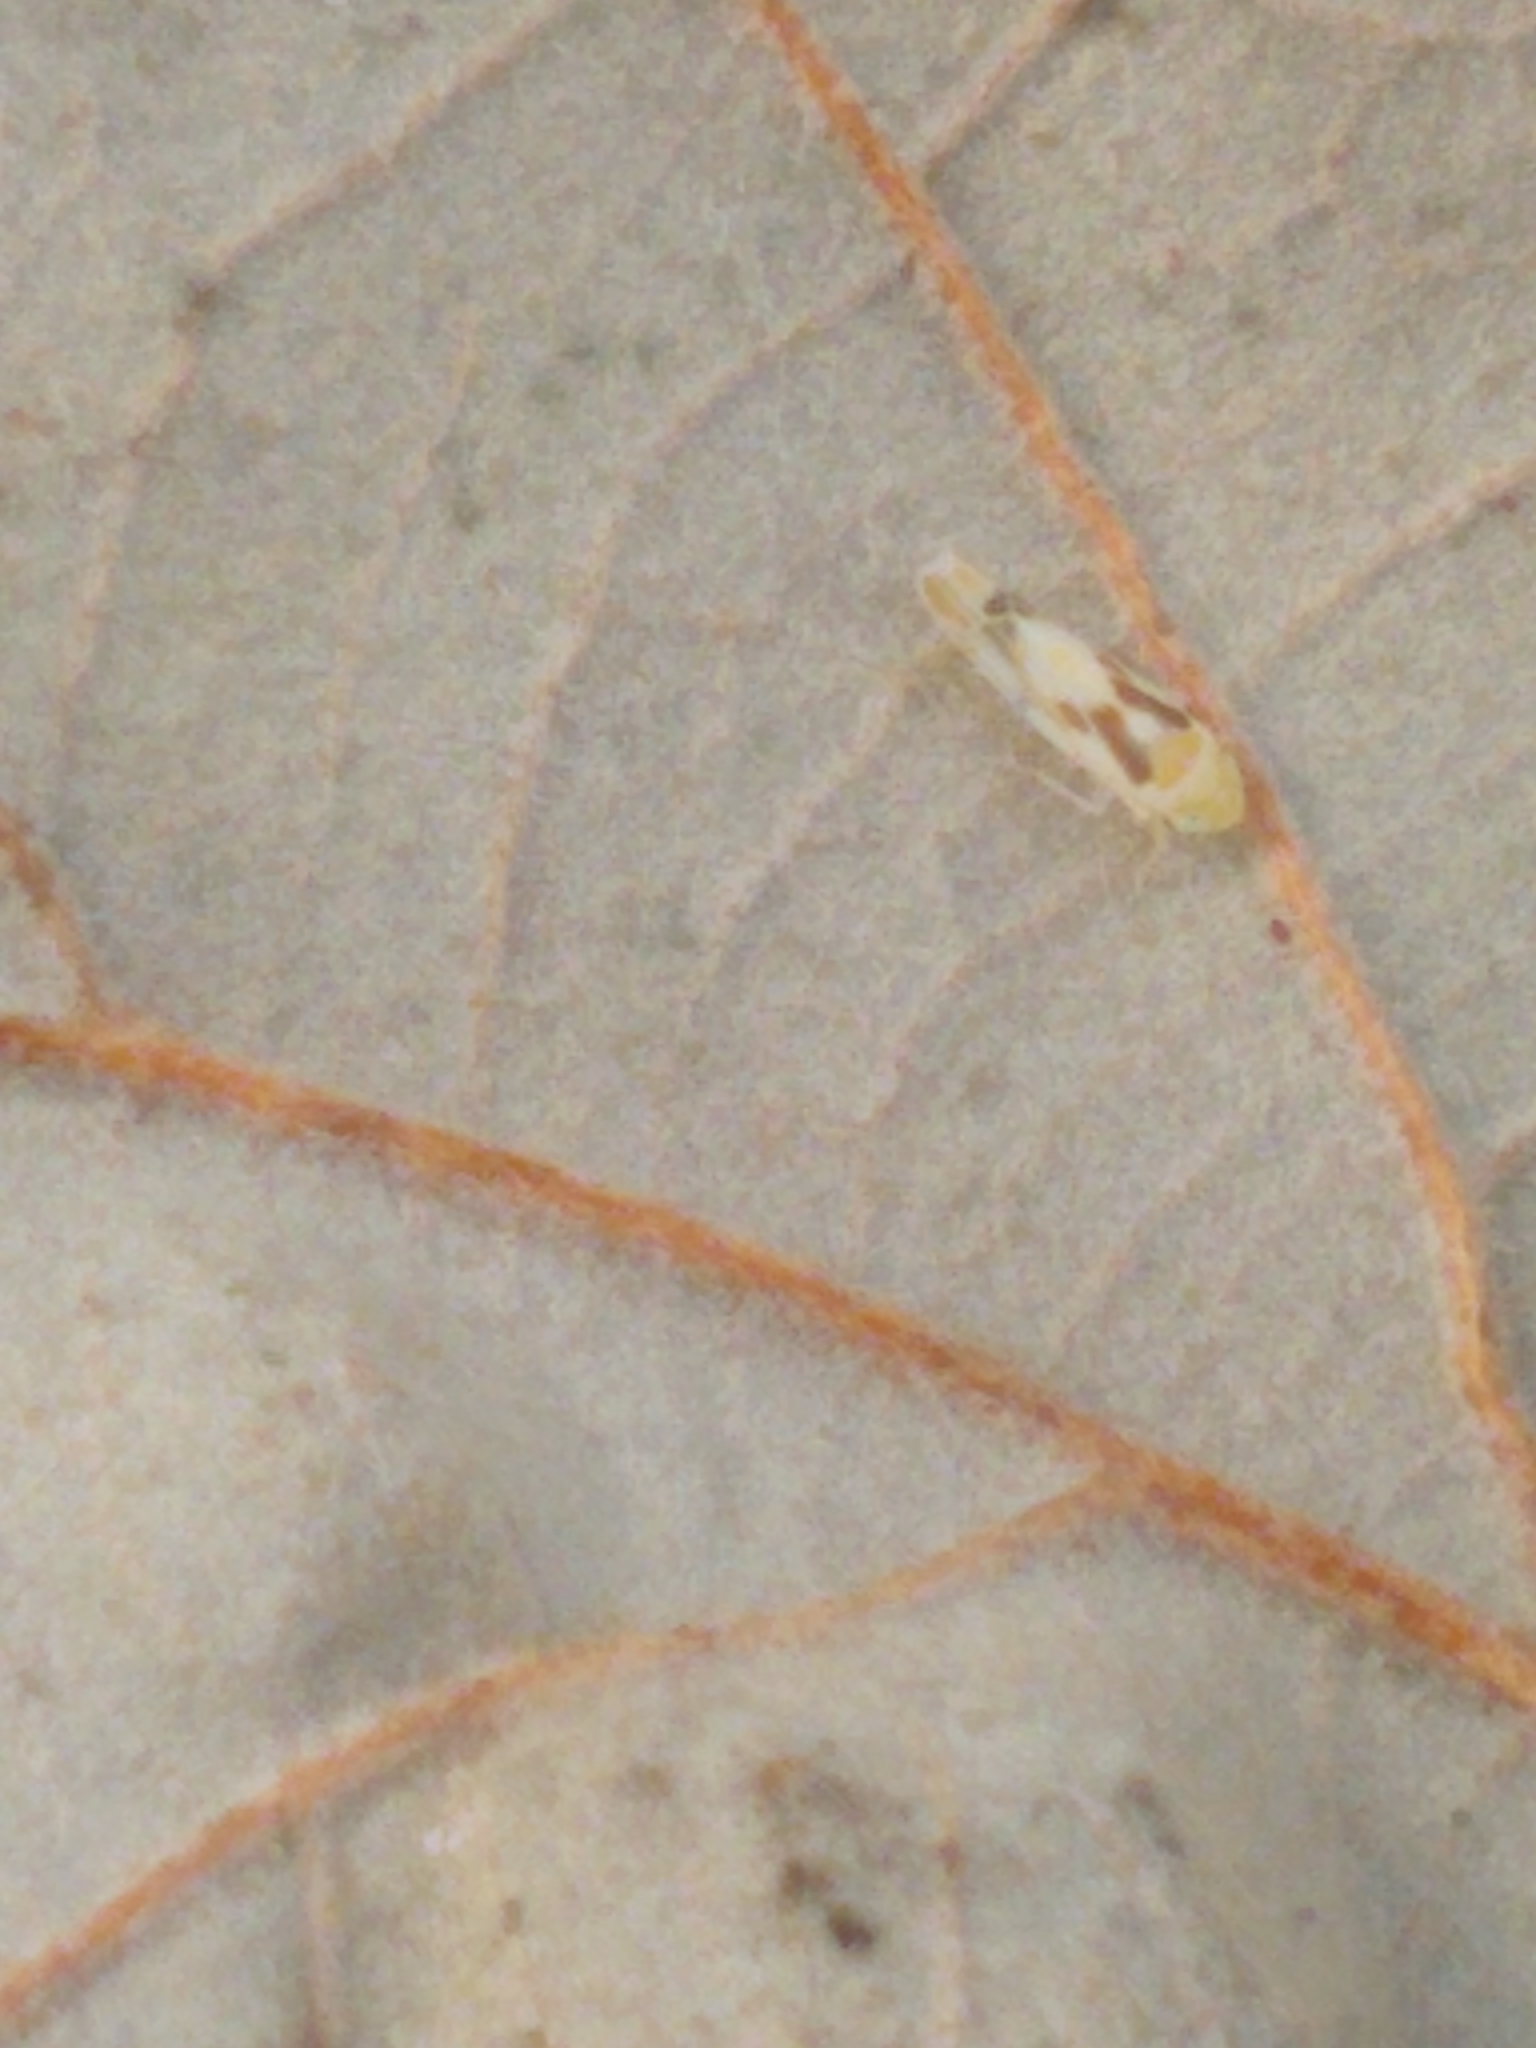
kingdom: Animalia
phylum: Arthropoda
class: Insecta
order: Hemiptera
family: Cicadellidae
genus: Eratoneura
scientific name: Eratoneura ligata
